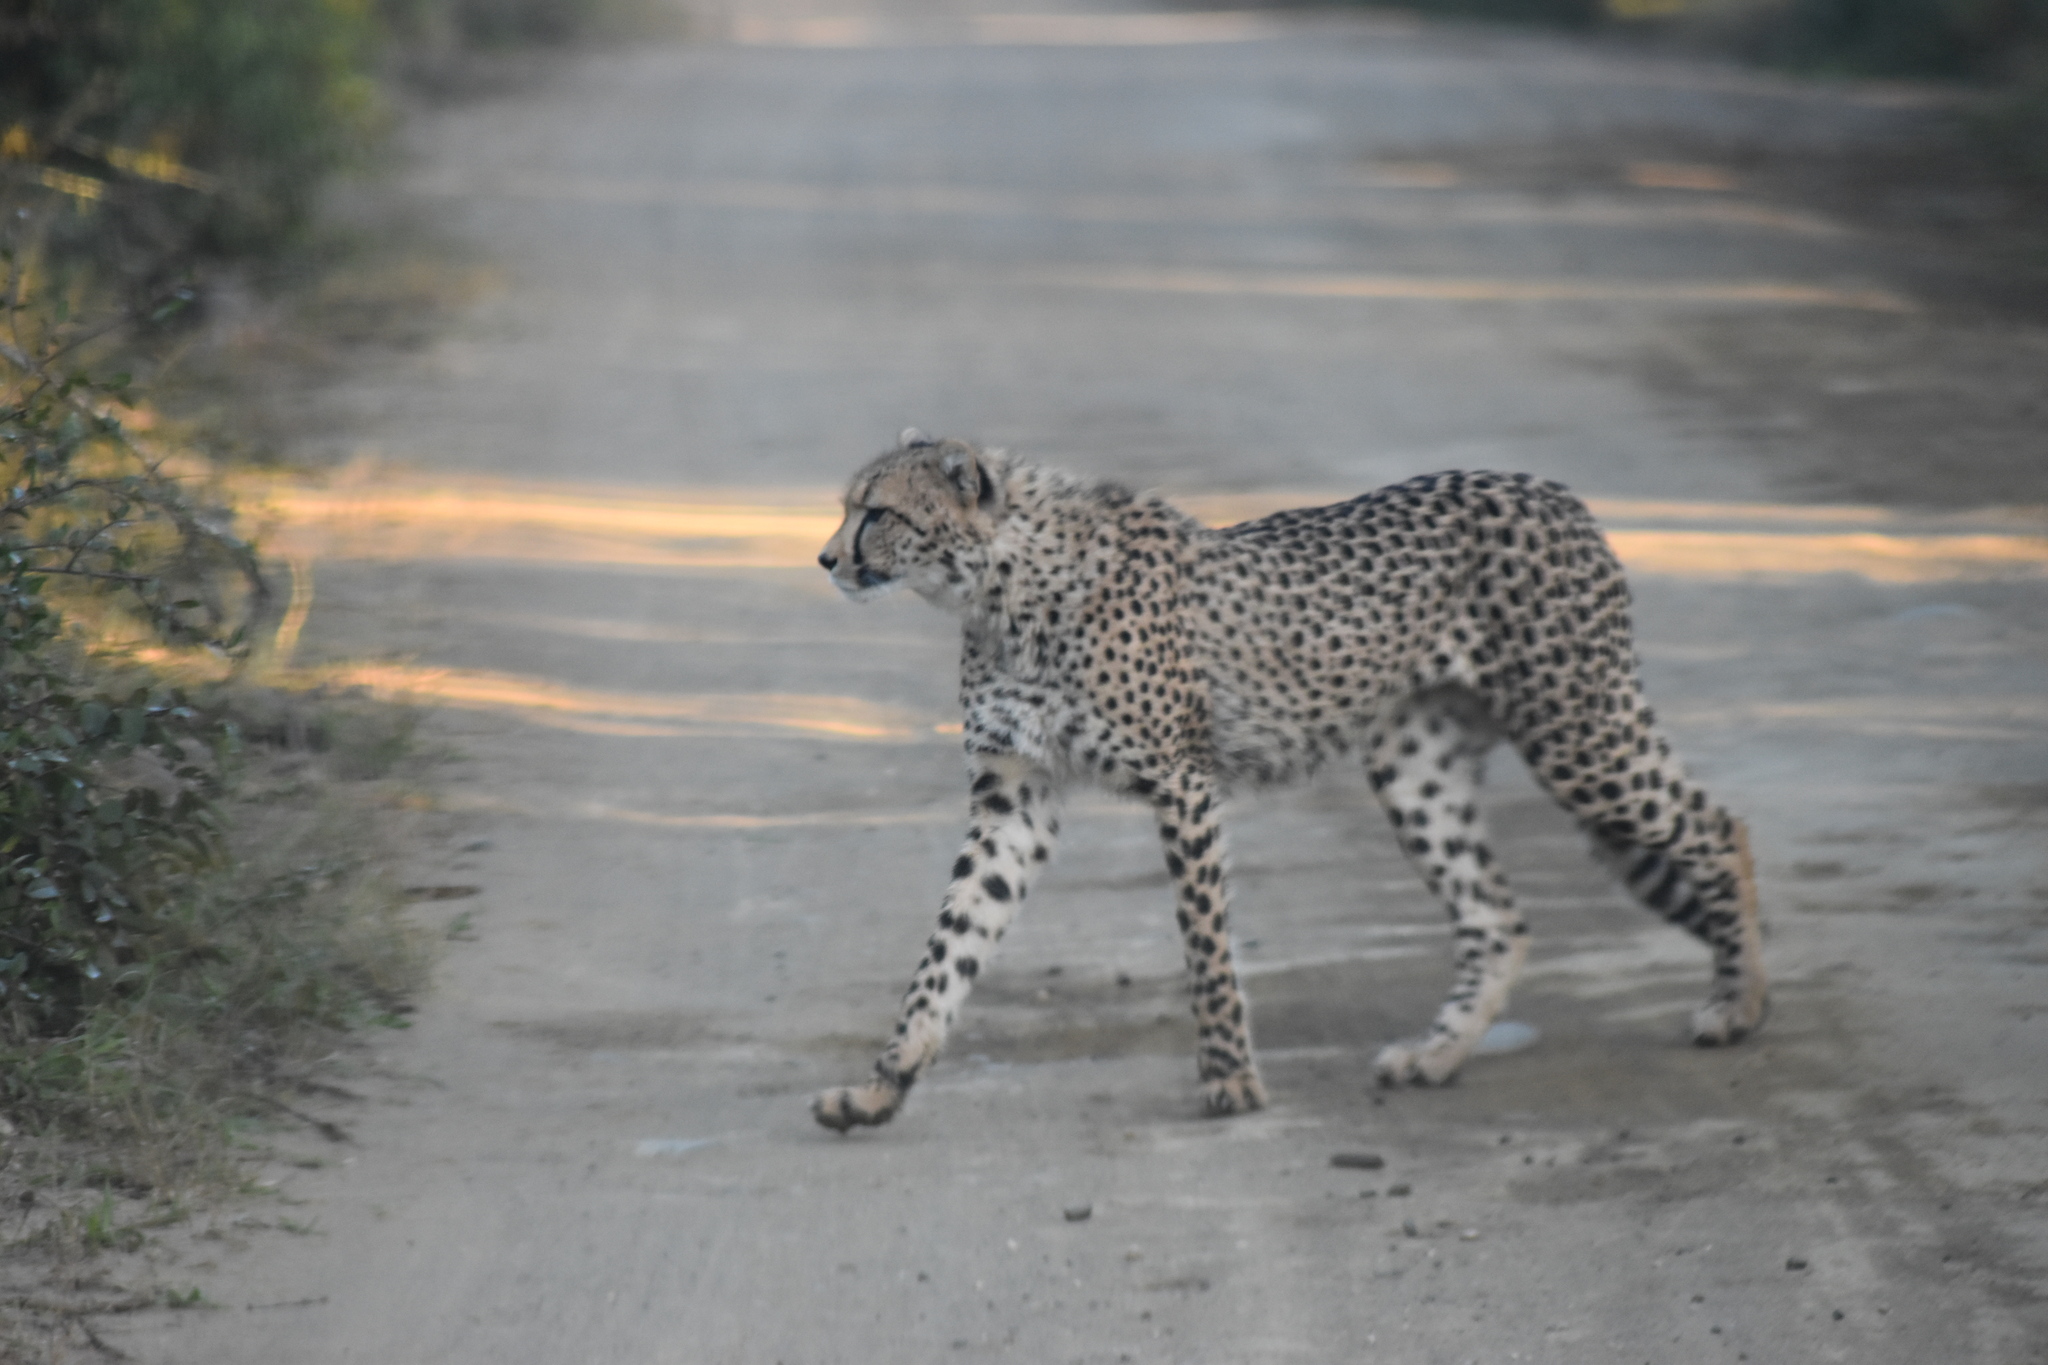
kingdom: Animalia
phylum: Chordata
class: Mammalia
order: Carnivora
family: Felidae
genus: Acinonyx
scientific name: Acinonyx jubatus
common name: Cheetah
